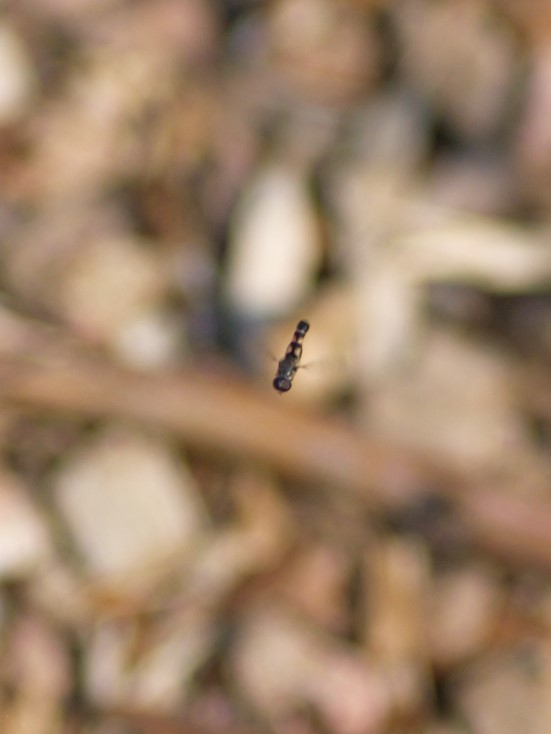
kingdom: Animalia
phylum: Arthropoda
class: Insecta
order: Diptera
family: Syrphidae
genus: Syritta
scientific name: Syritta pipiens
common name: Hover fly
